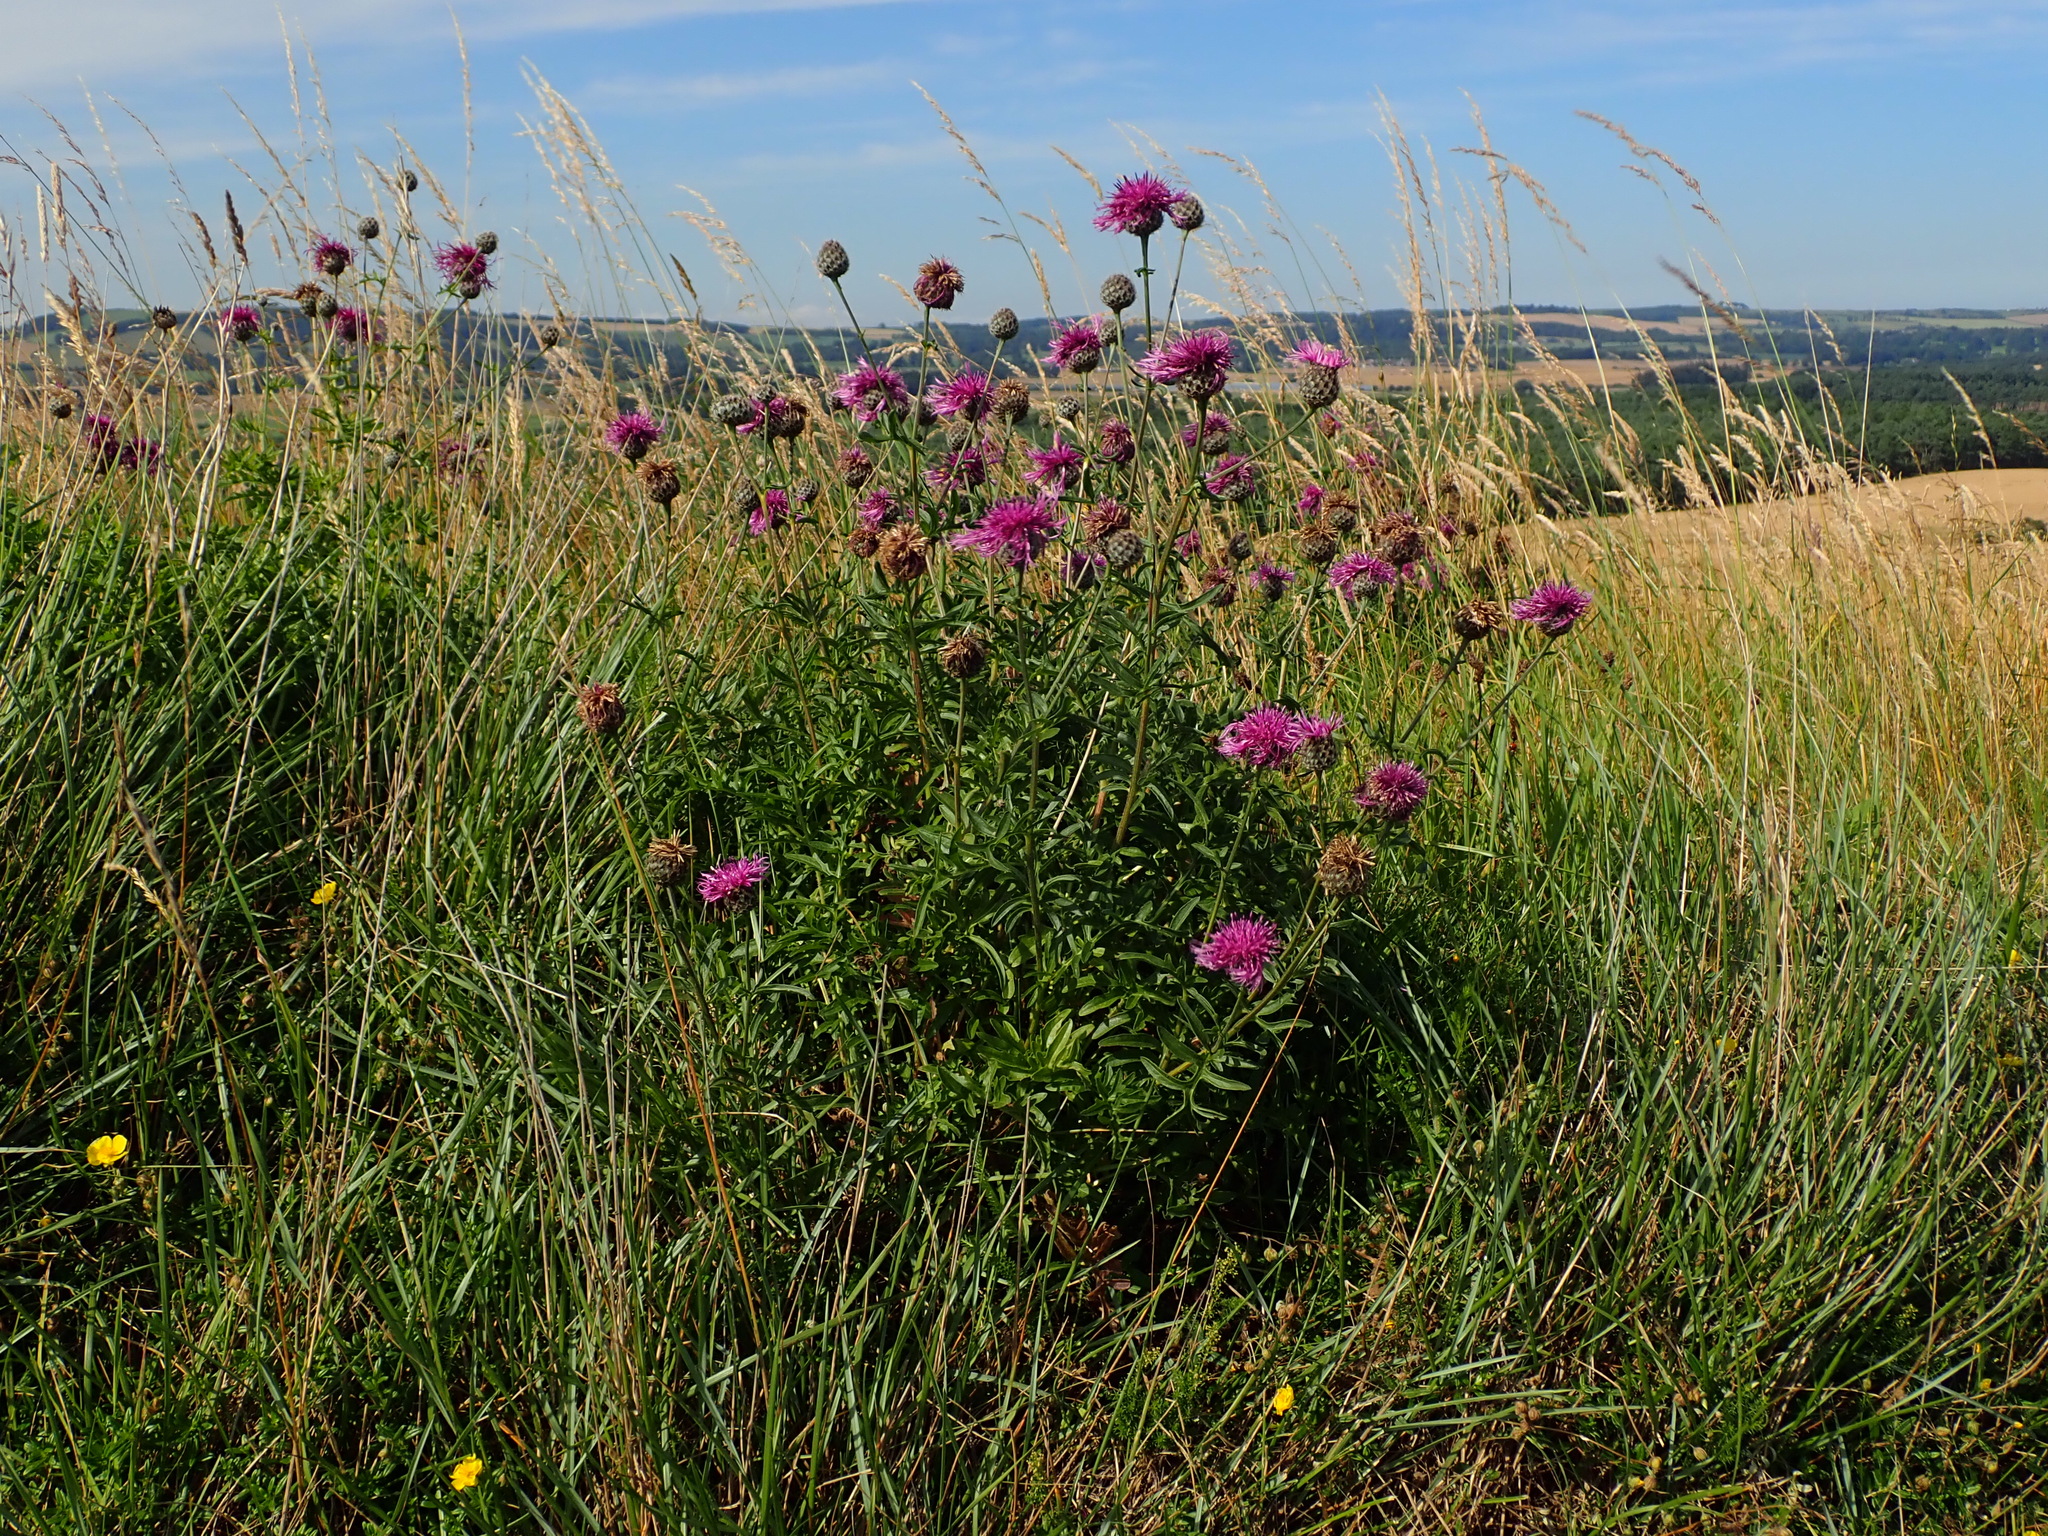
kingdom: Plantae
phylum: Tracheophyta
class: Magnoliopsida
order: Asterales
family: Asteraceae
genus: Centaurea
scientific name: Centaurea scabiosa
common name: Greater knapweed
